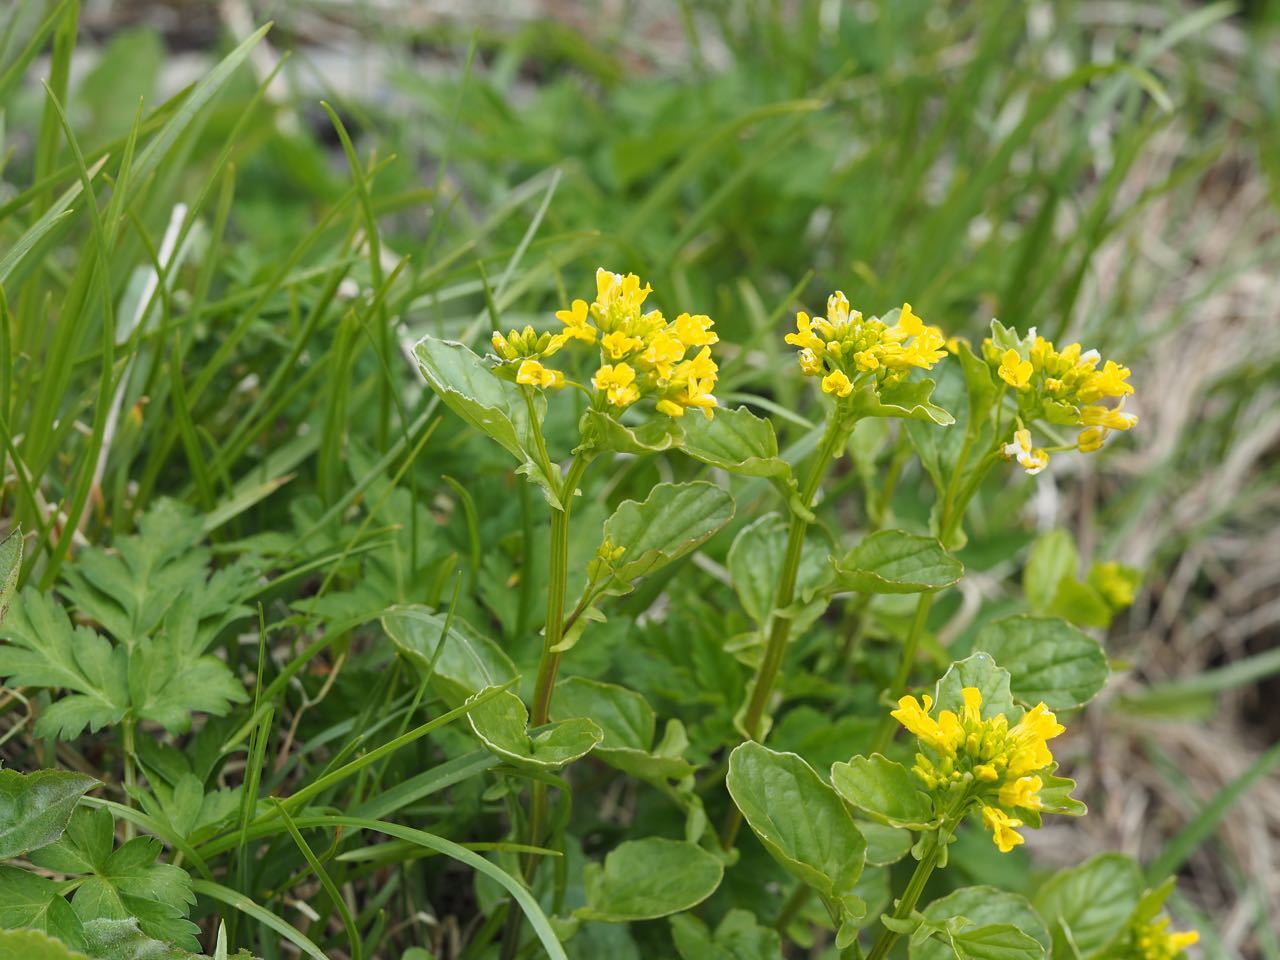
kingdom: Plantae
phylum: Tracheophyta
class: Magnoliopsida
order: Brassicales
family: Brassicaceae
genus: Draba
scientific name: Draba japonica
